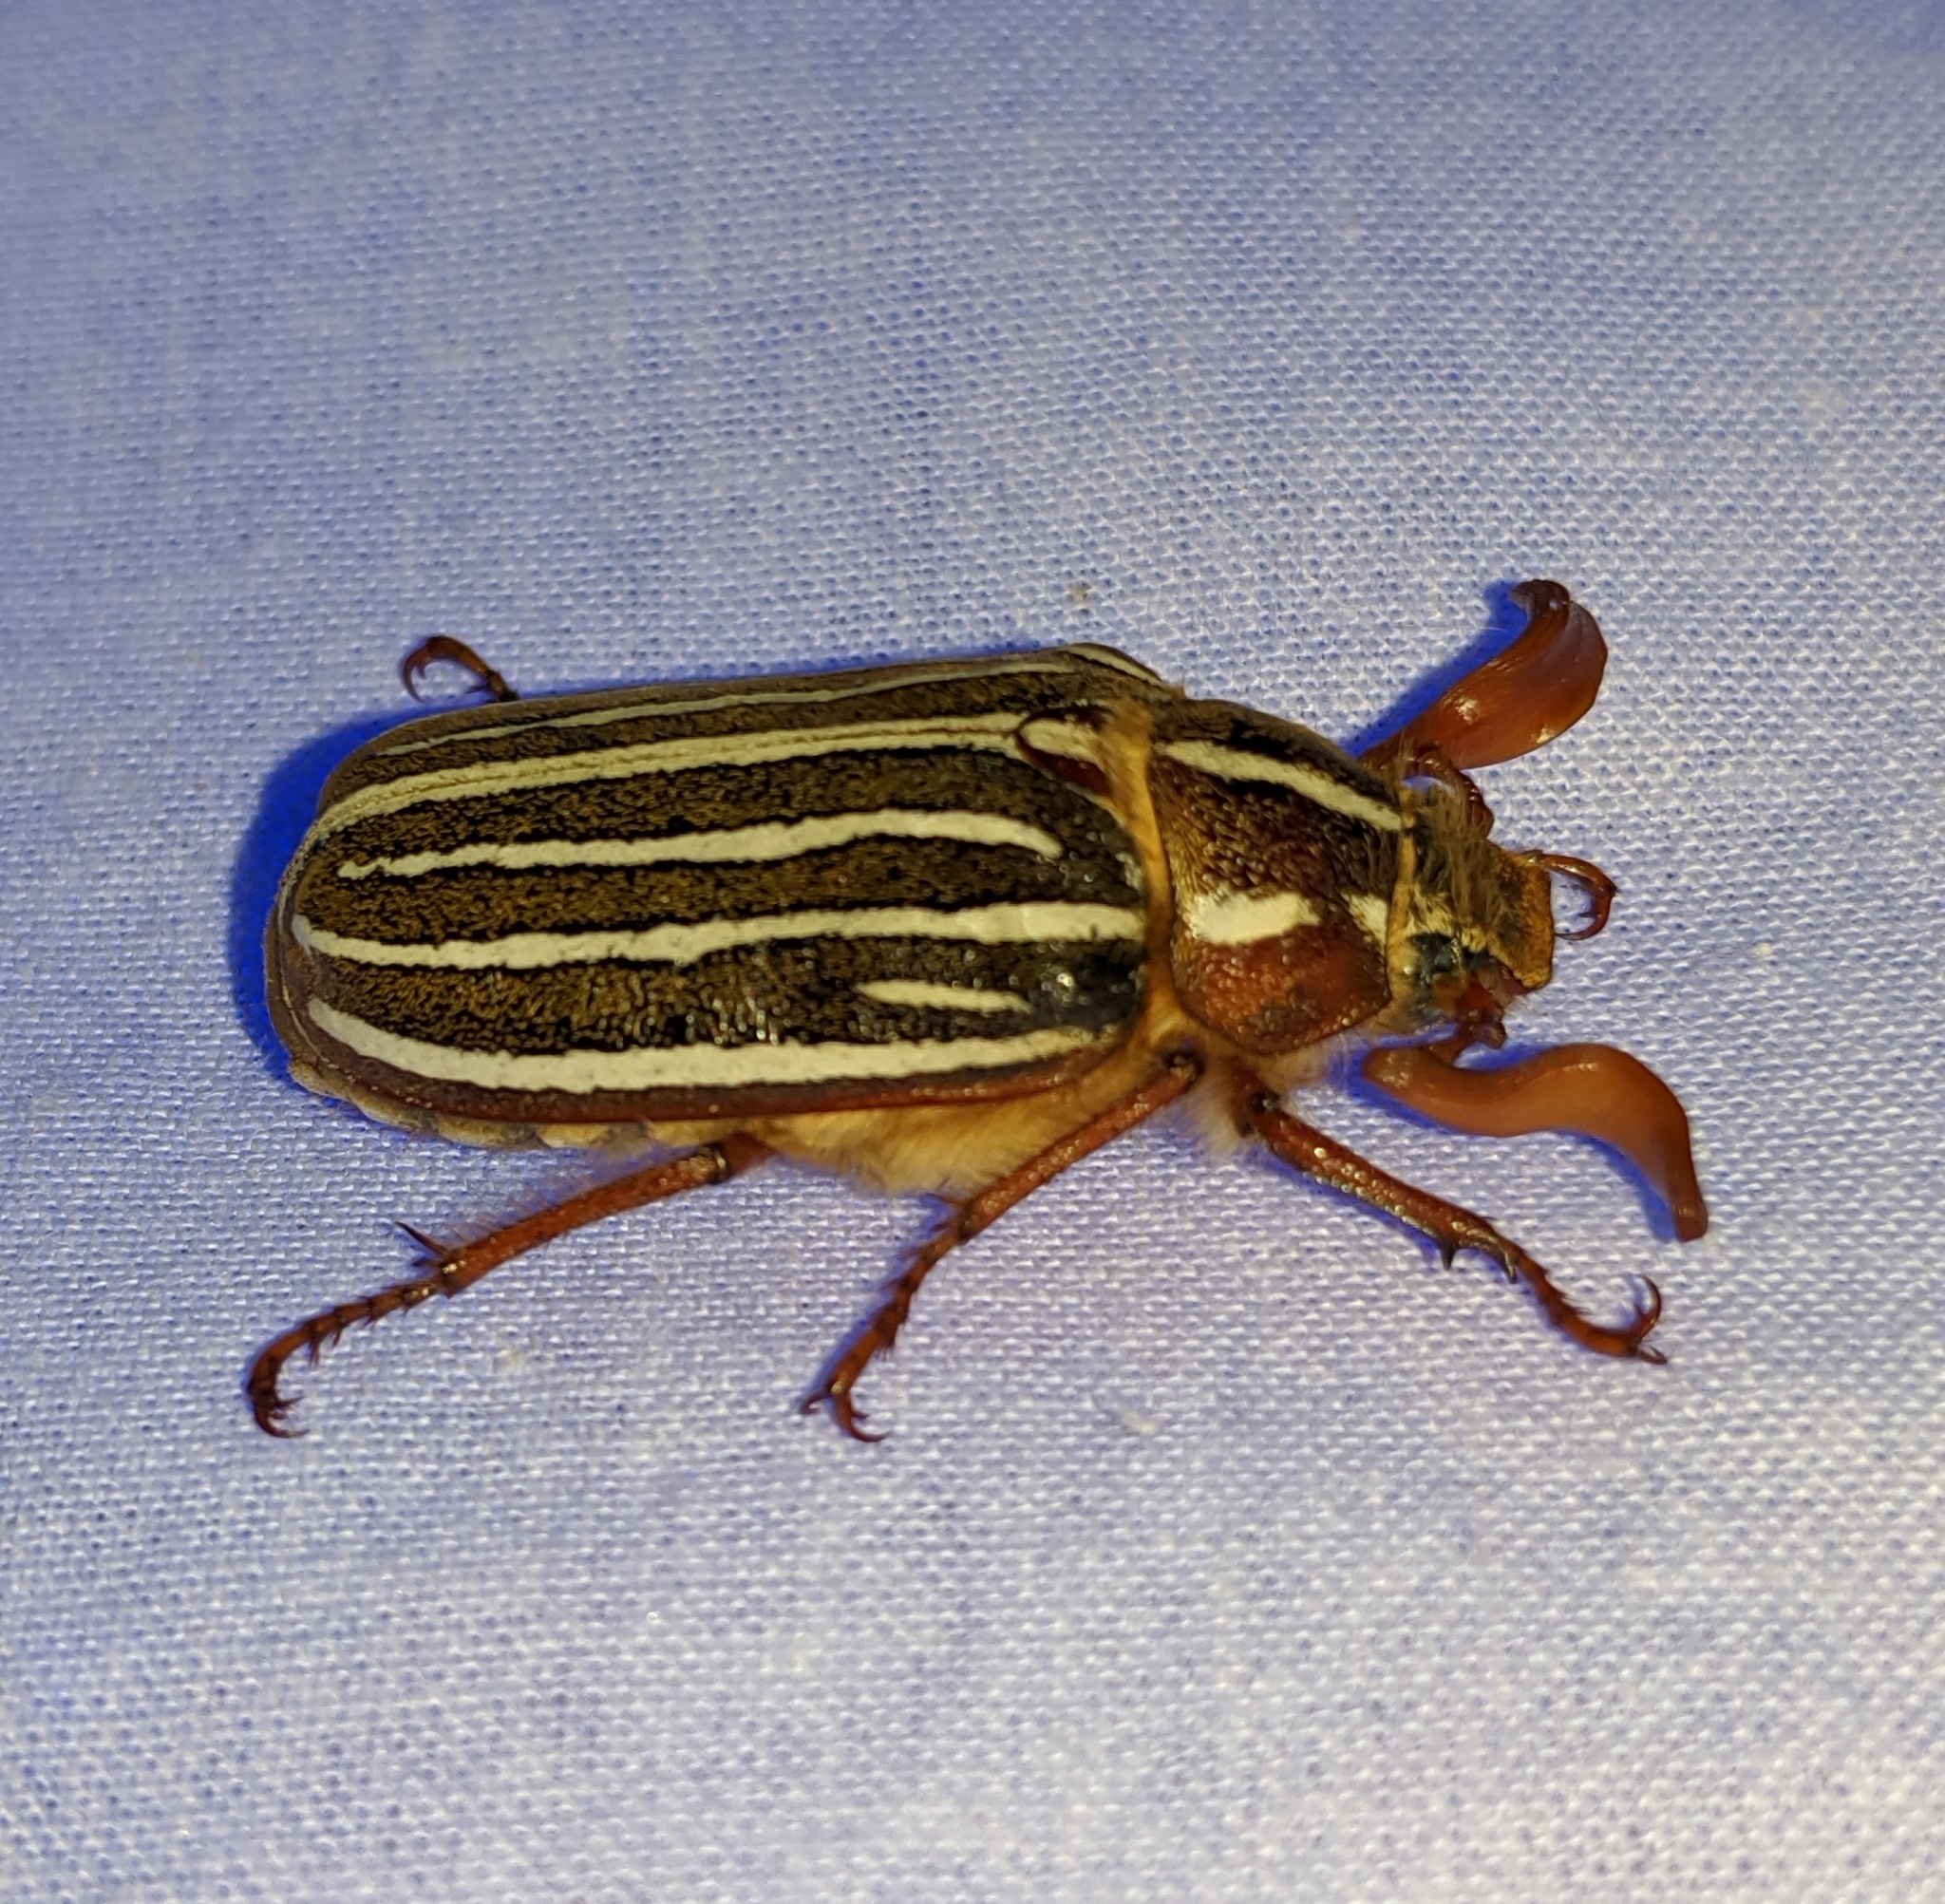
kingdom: Animalia
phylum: Arthropoda
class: Insecta
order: Coleoptera
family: Scarabaeidae
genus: Polyphylla
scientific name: Polyphylla crinita
